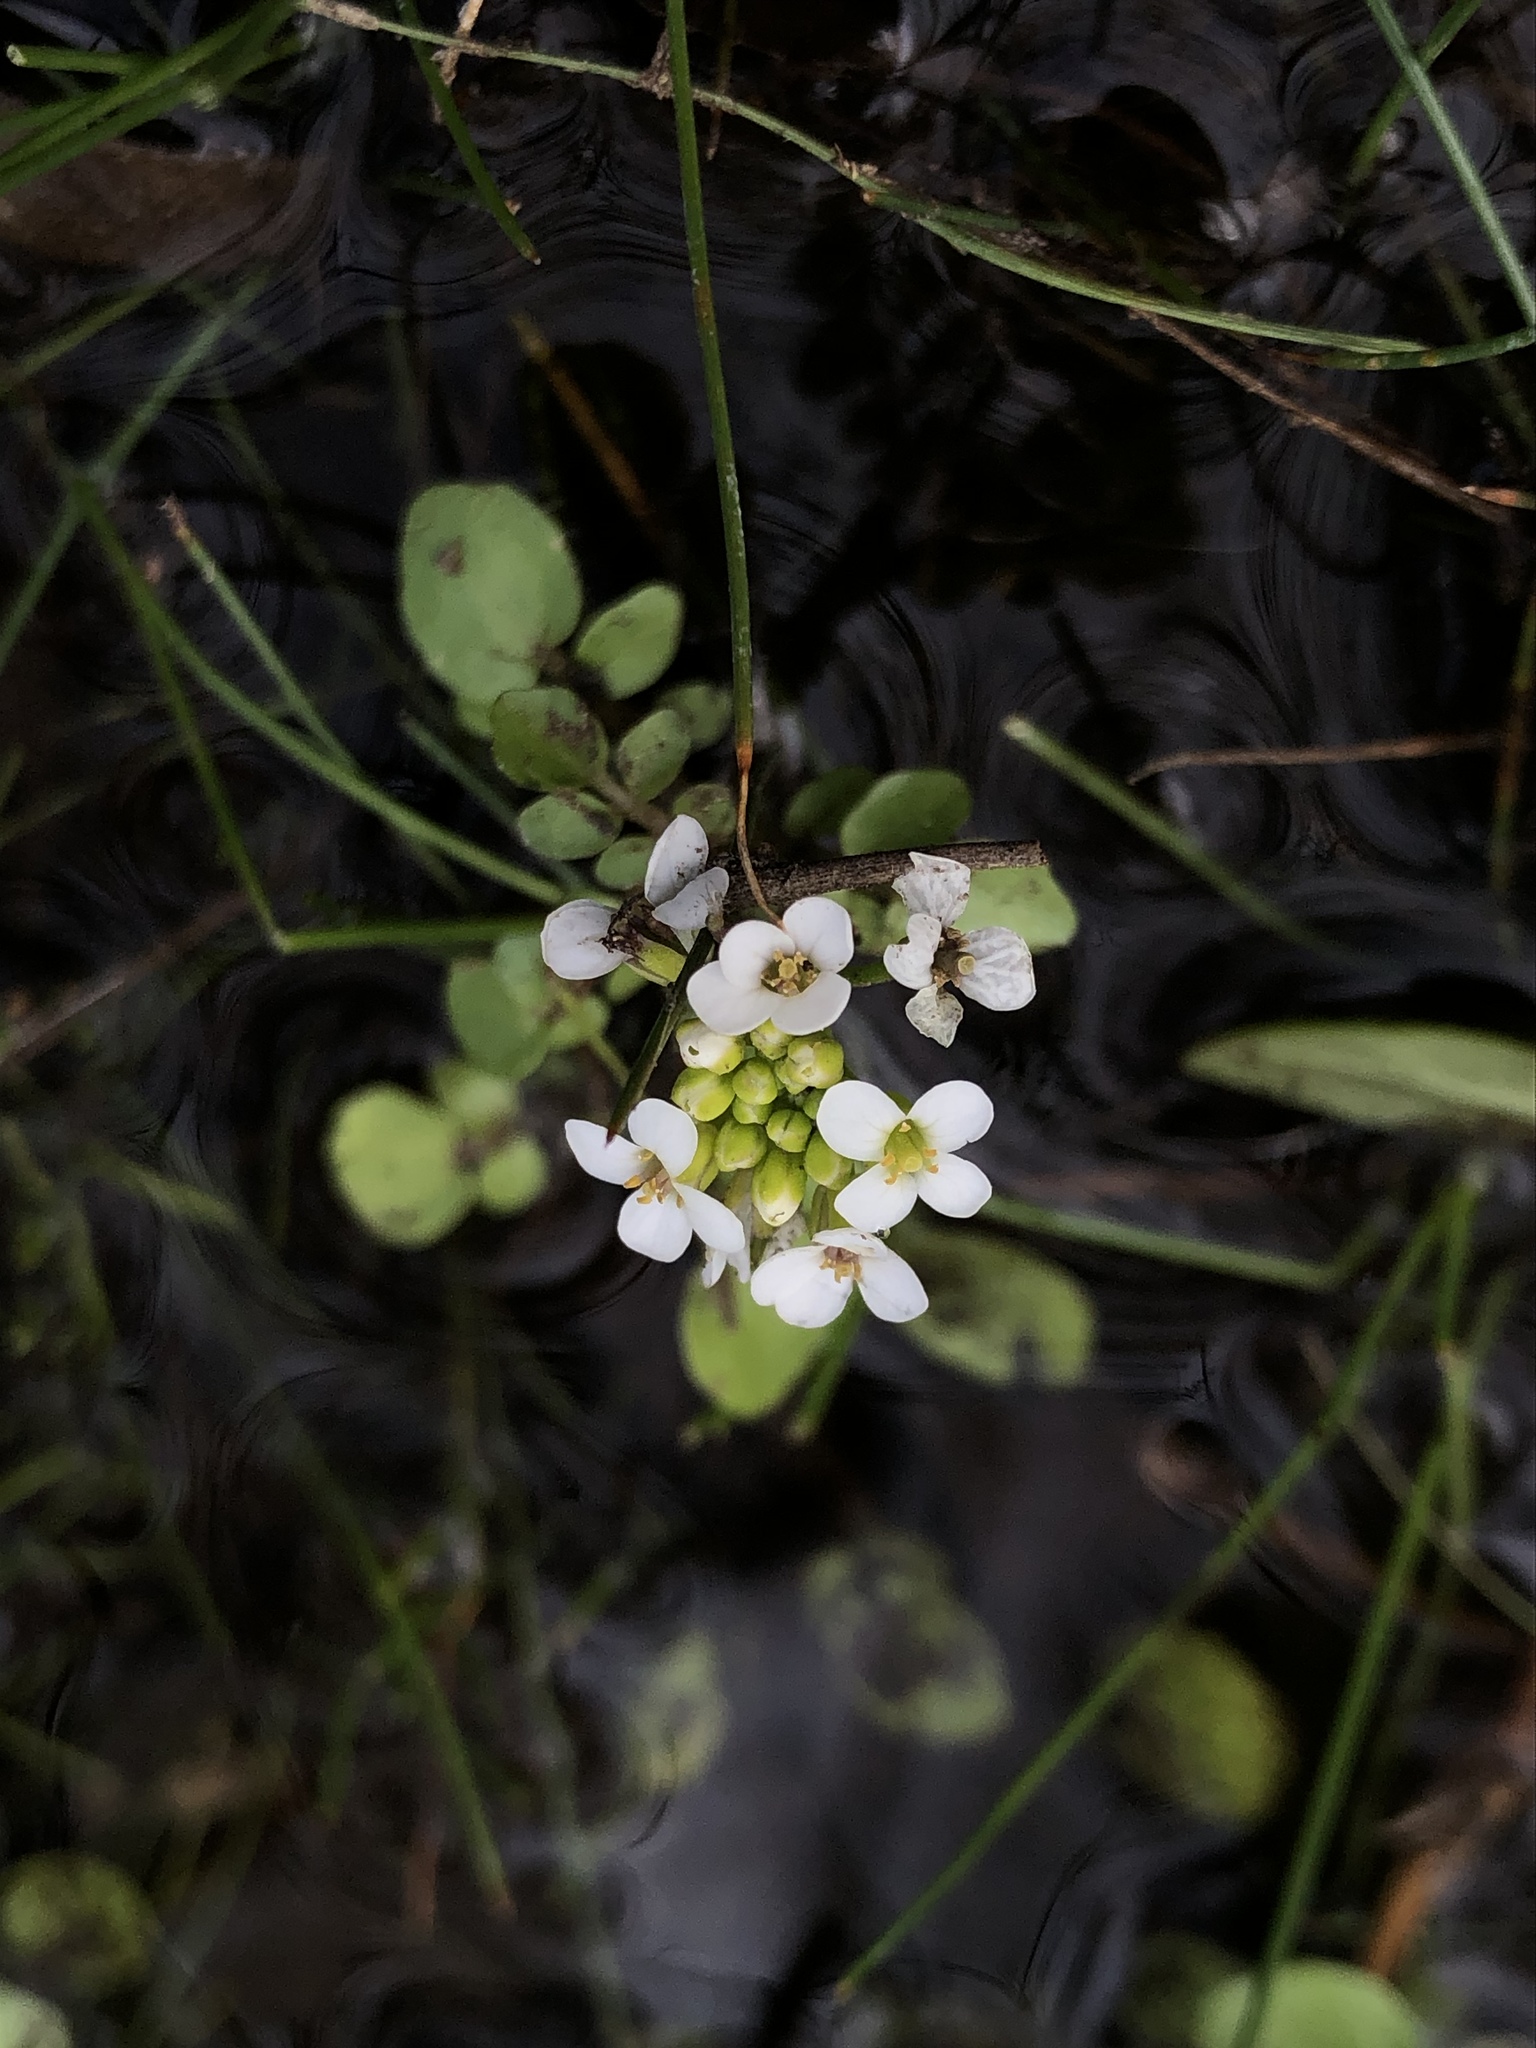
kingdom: Plantae
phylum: Tracheophyta
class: Magnoliopsida
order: Brassicales
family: Brassicaceae
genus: Nasturtium
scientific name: Nasturtium officinale
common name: Watercress
